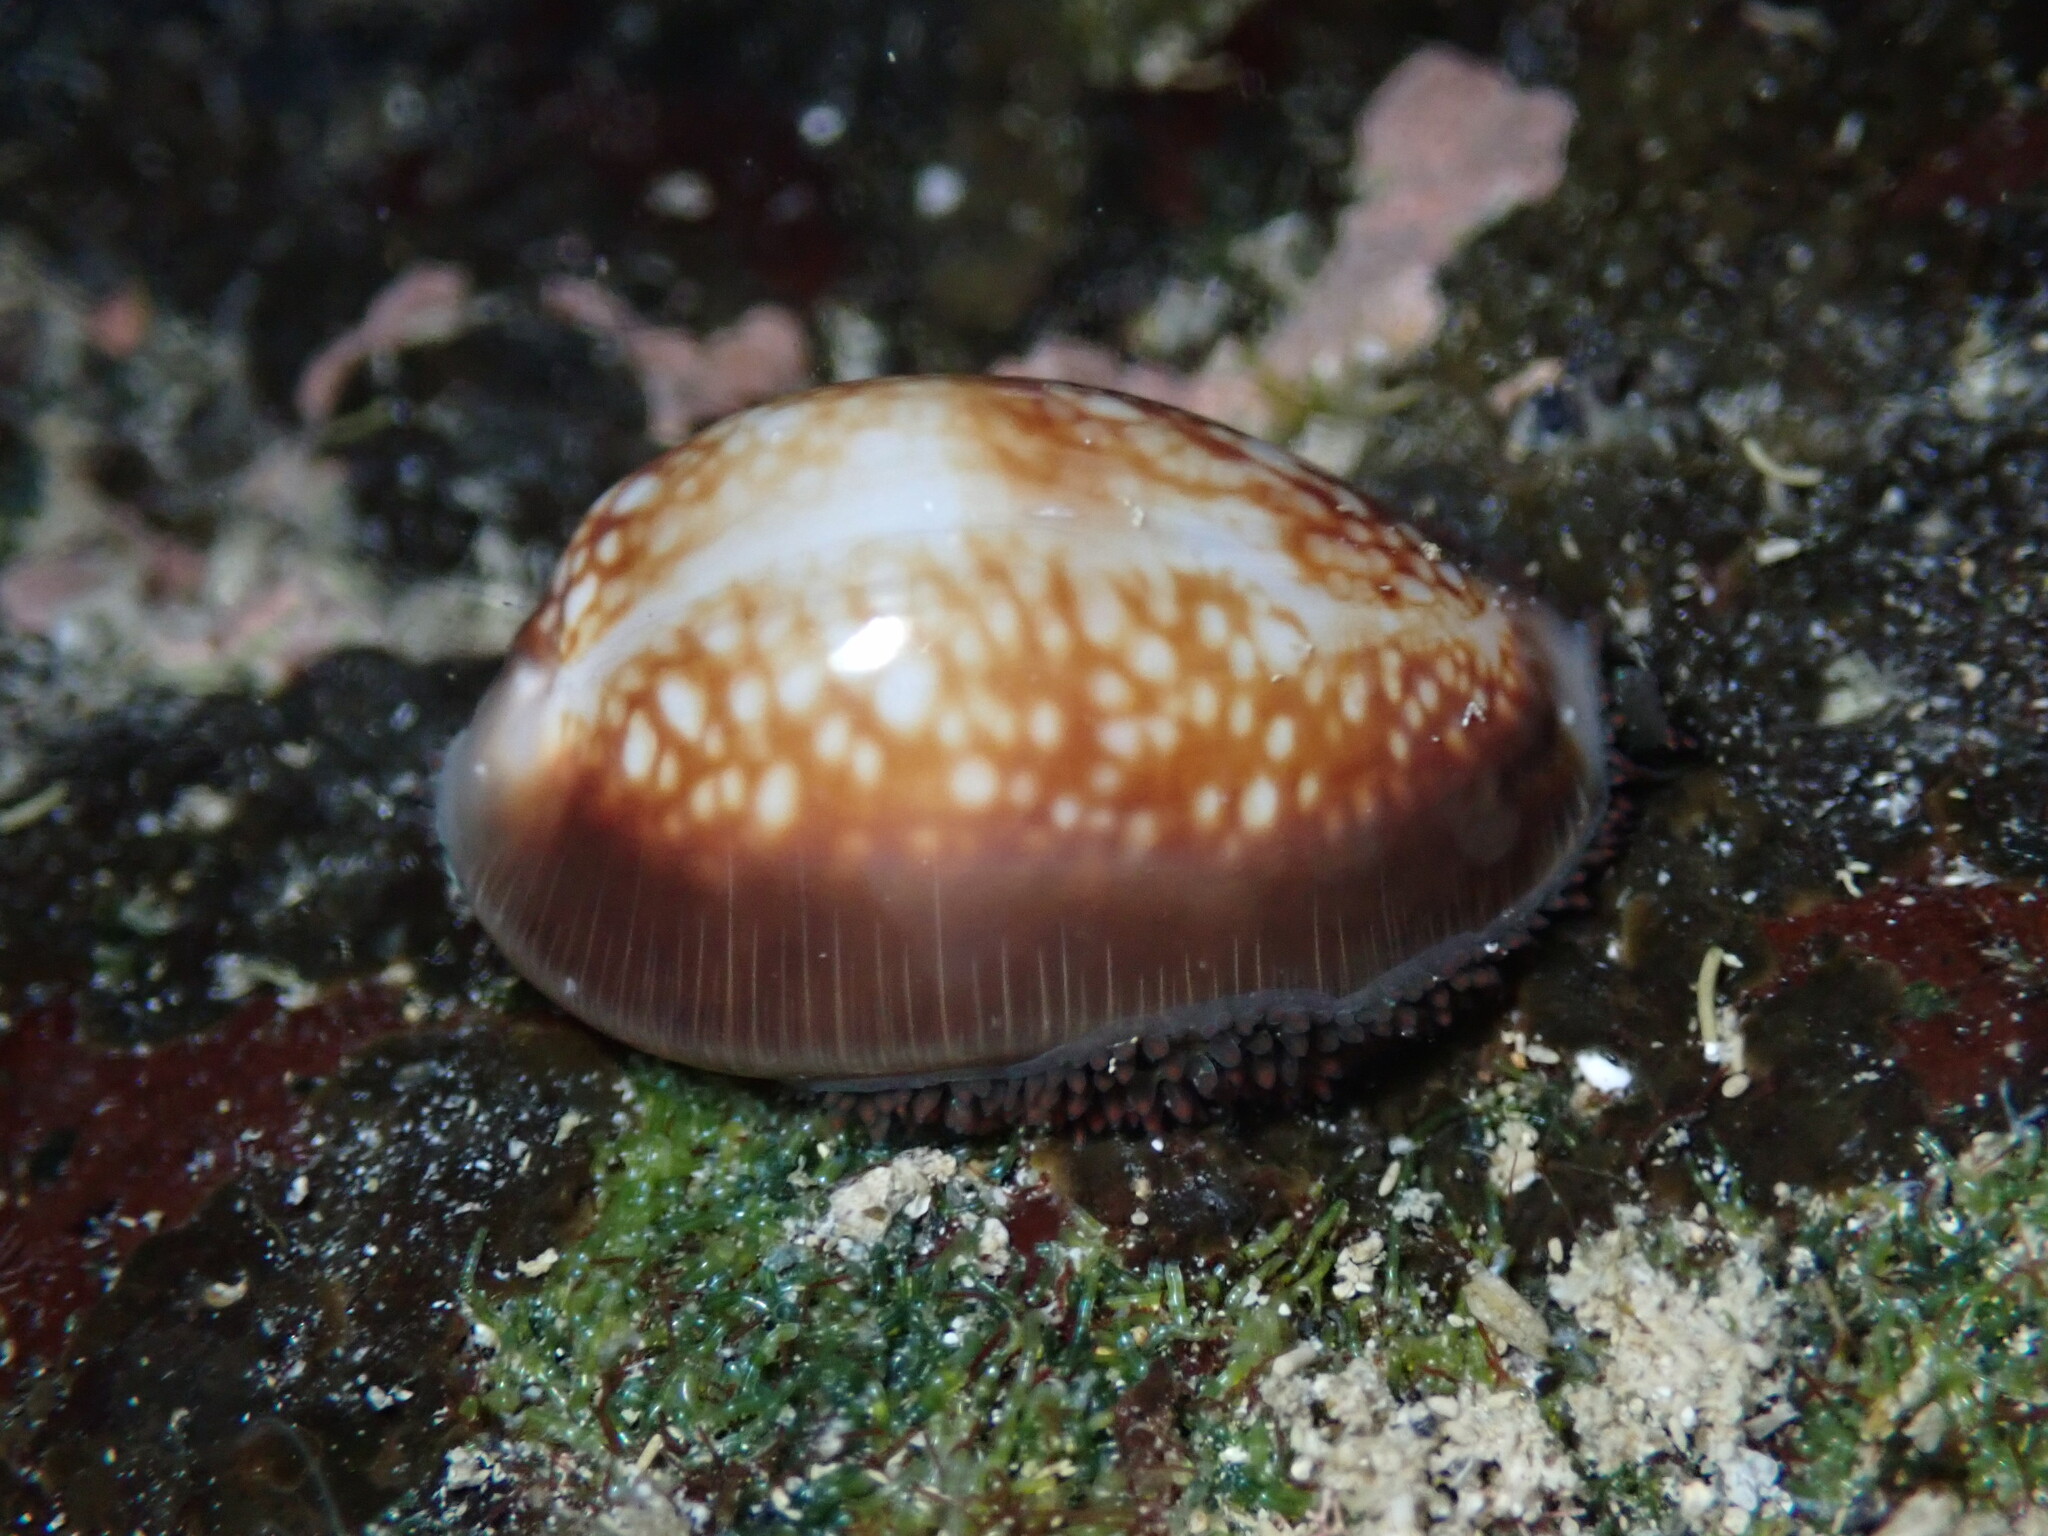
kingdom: Animalia
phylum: Mollusca
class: Gastropoda
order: Littorinimorpha
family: Cypraeidae
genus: Monetaria
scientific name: Monetaria caputophidii
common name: Snake's head cowry
